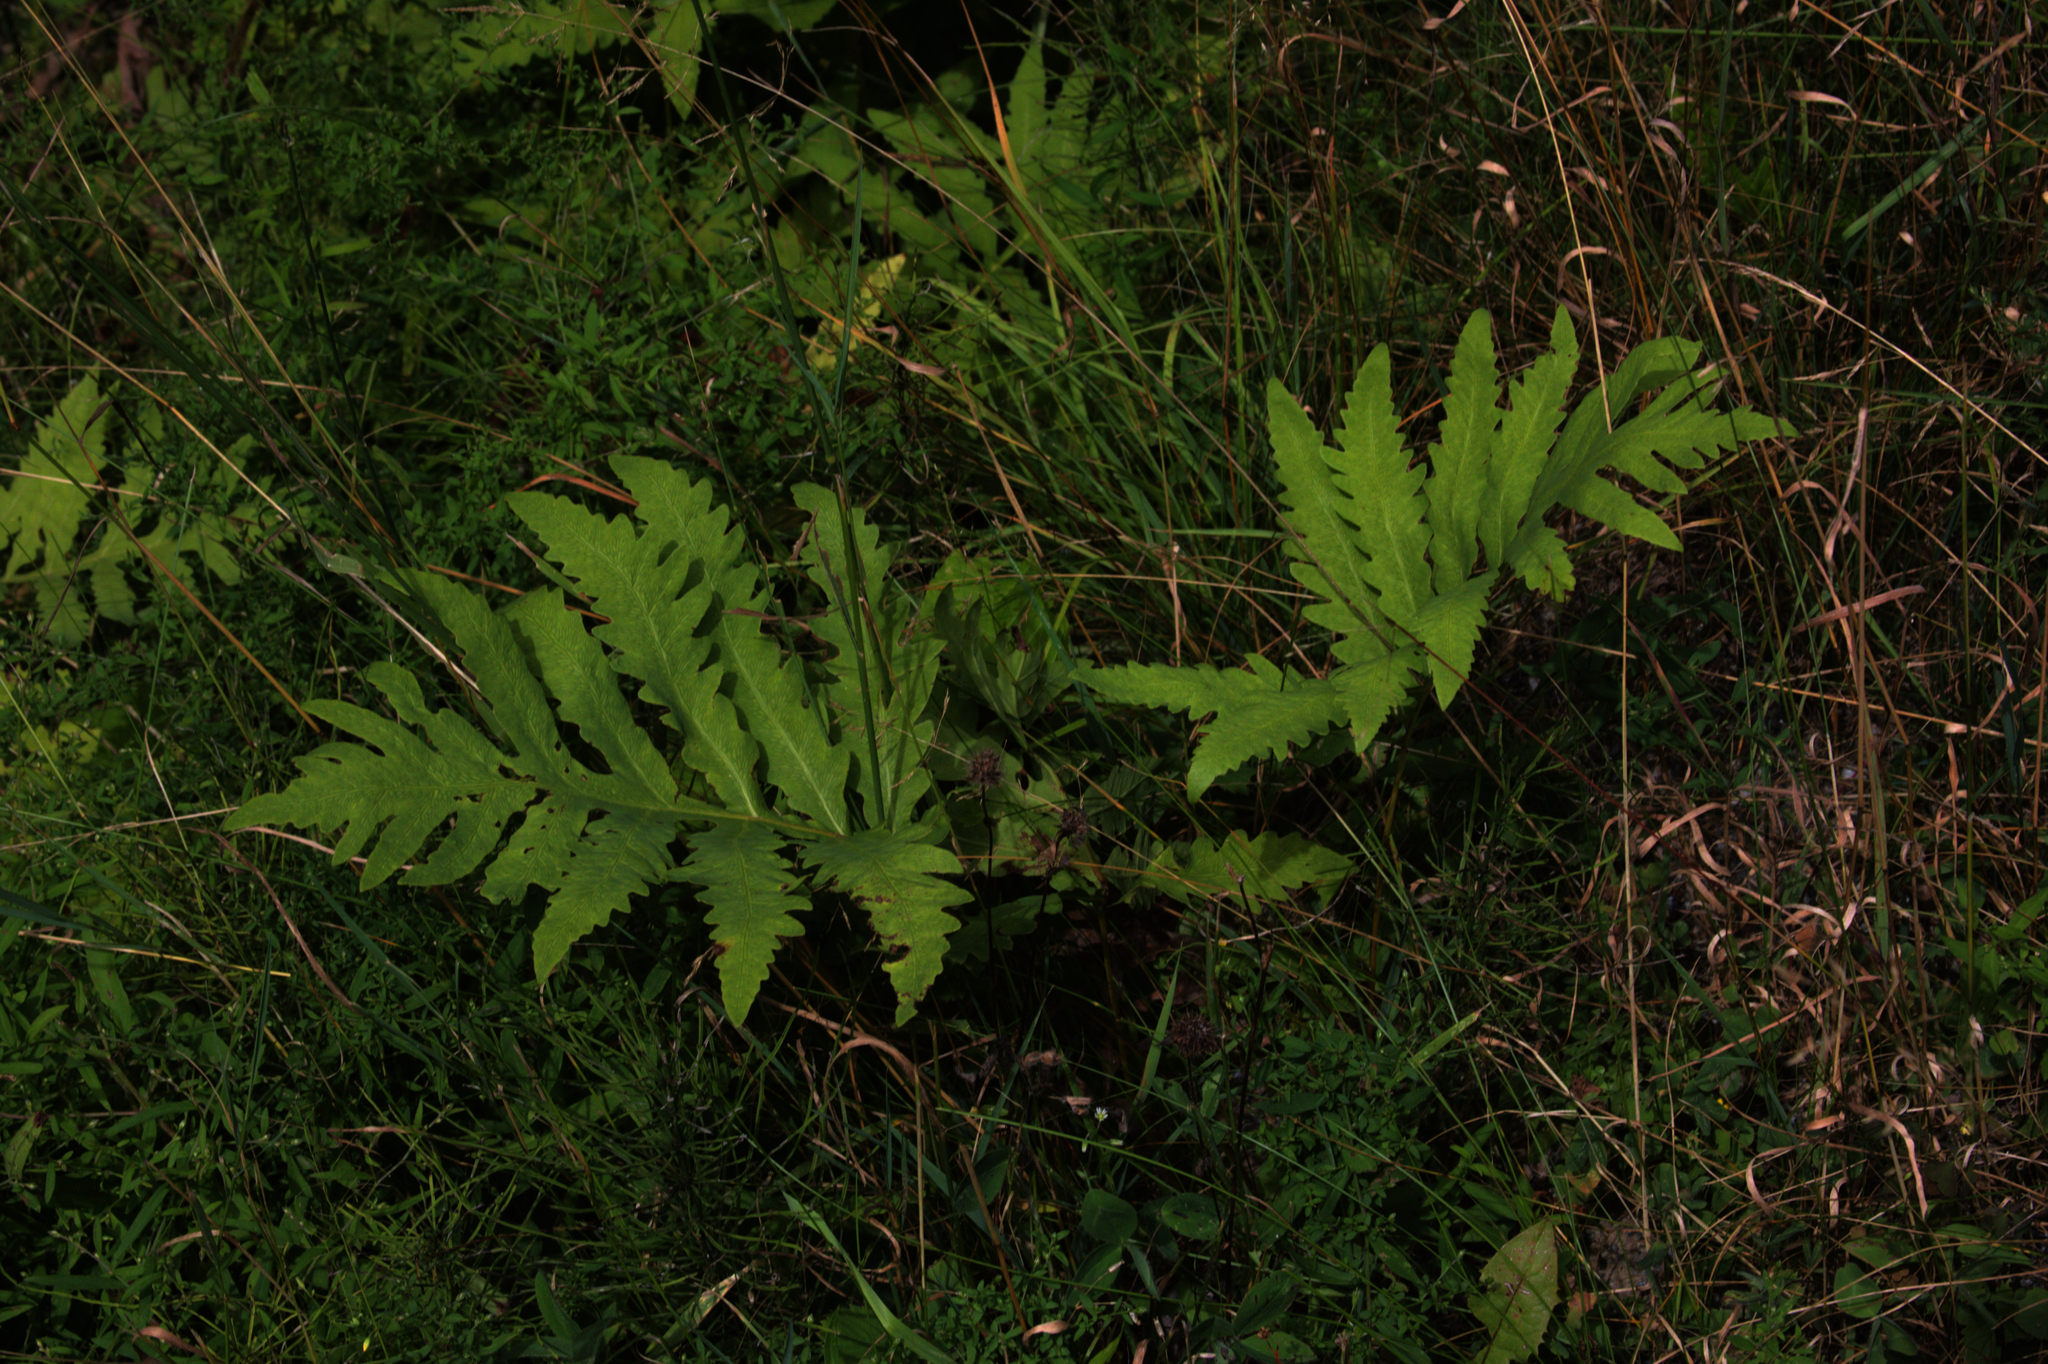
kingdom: Plantae
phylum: Tracheophyta
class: Polypodiopsida
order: Polypodiales
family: Onocleaceae
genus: Onoclea
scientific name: Onoclea sensibilis
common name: Sensitive fern
